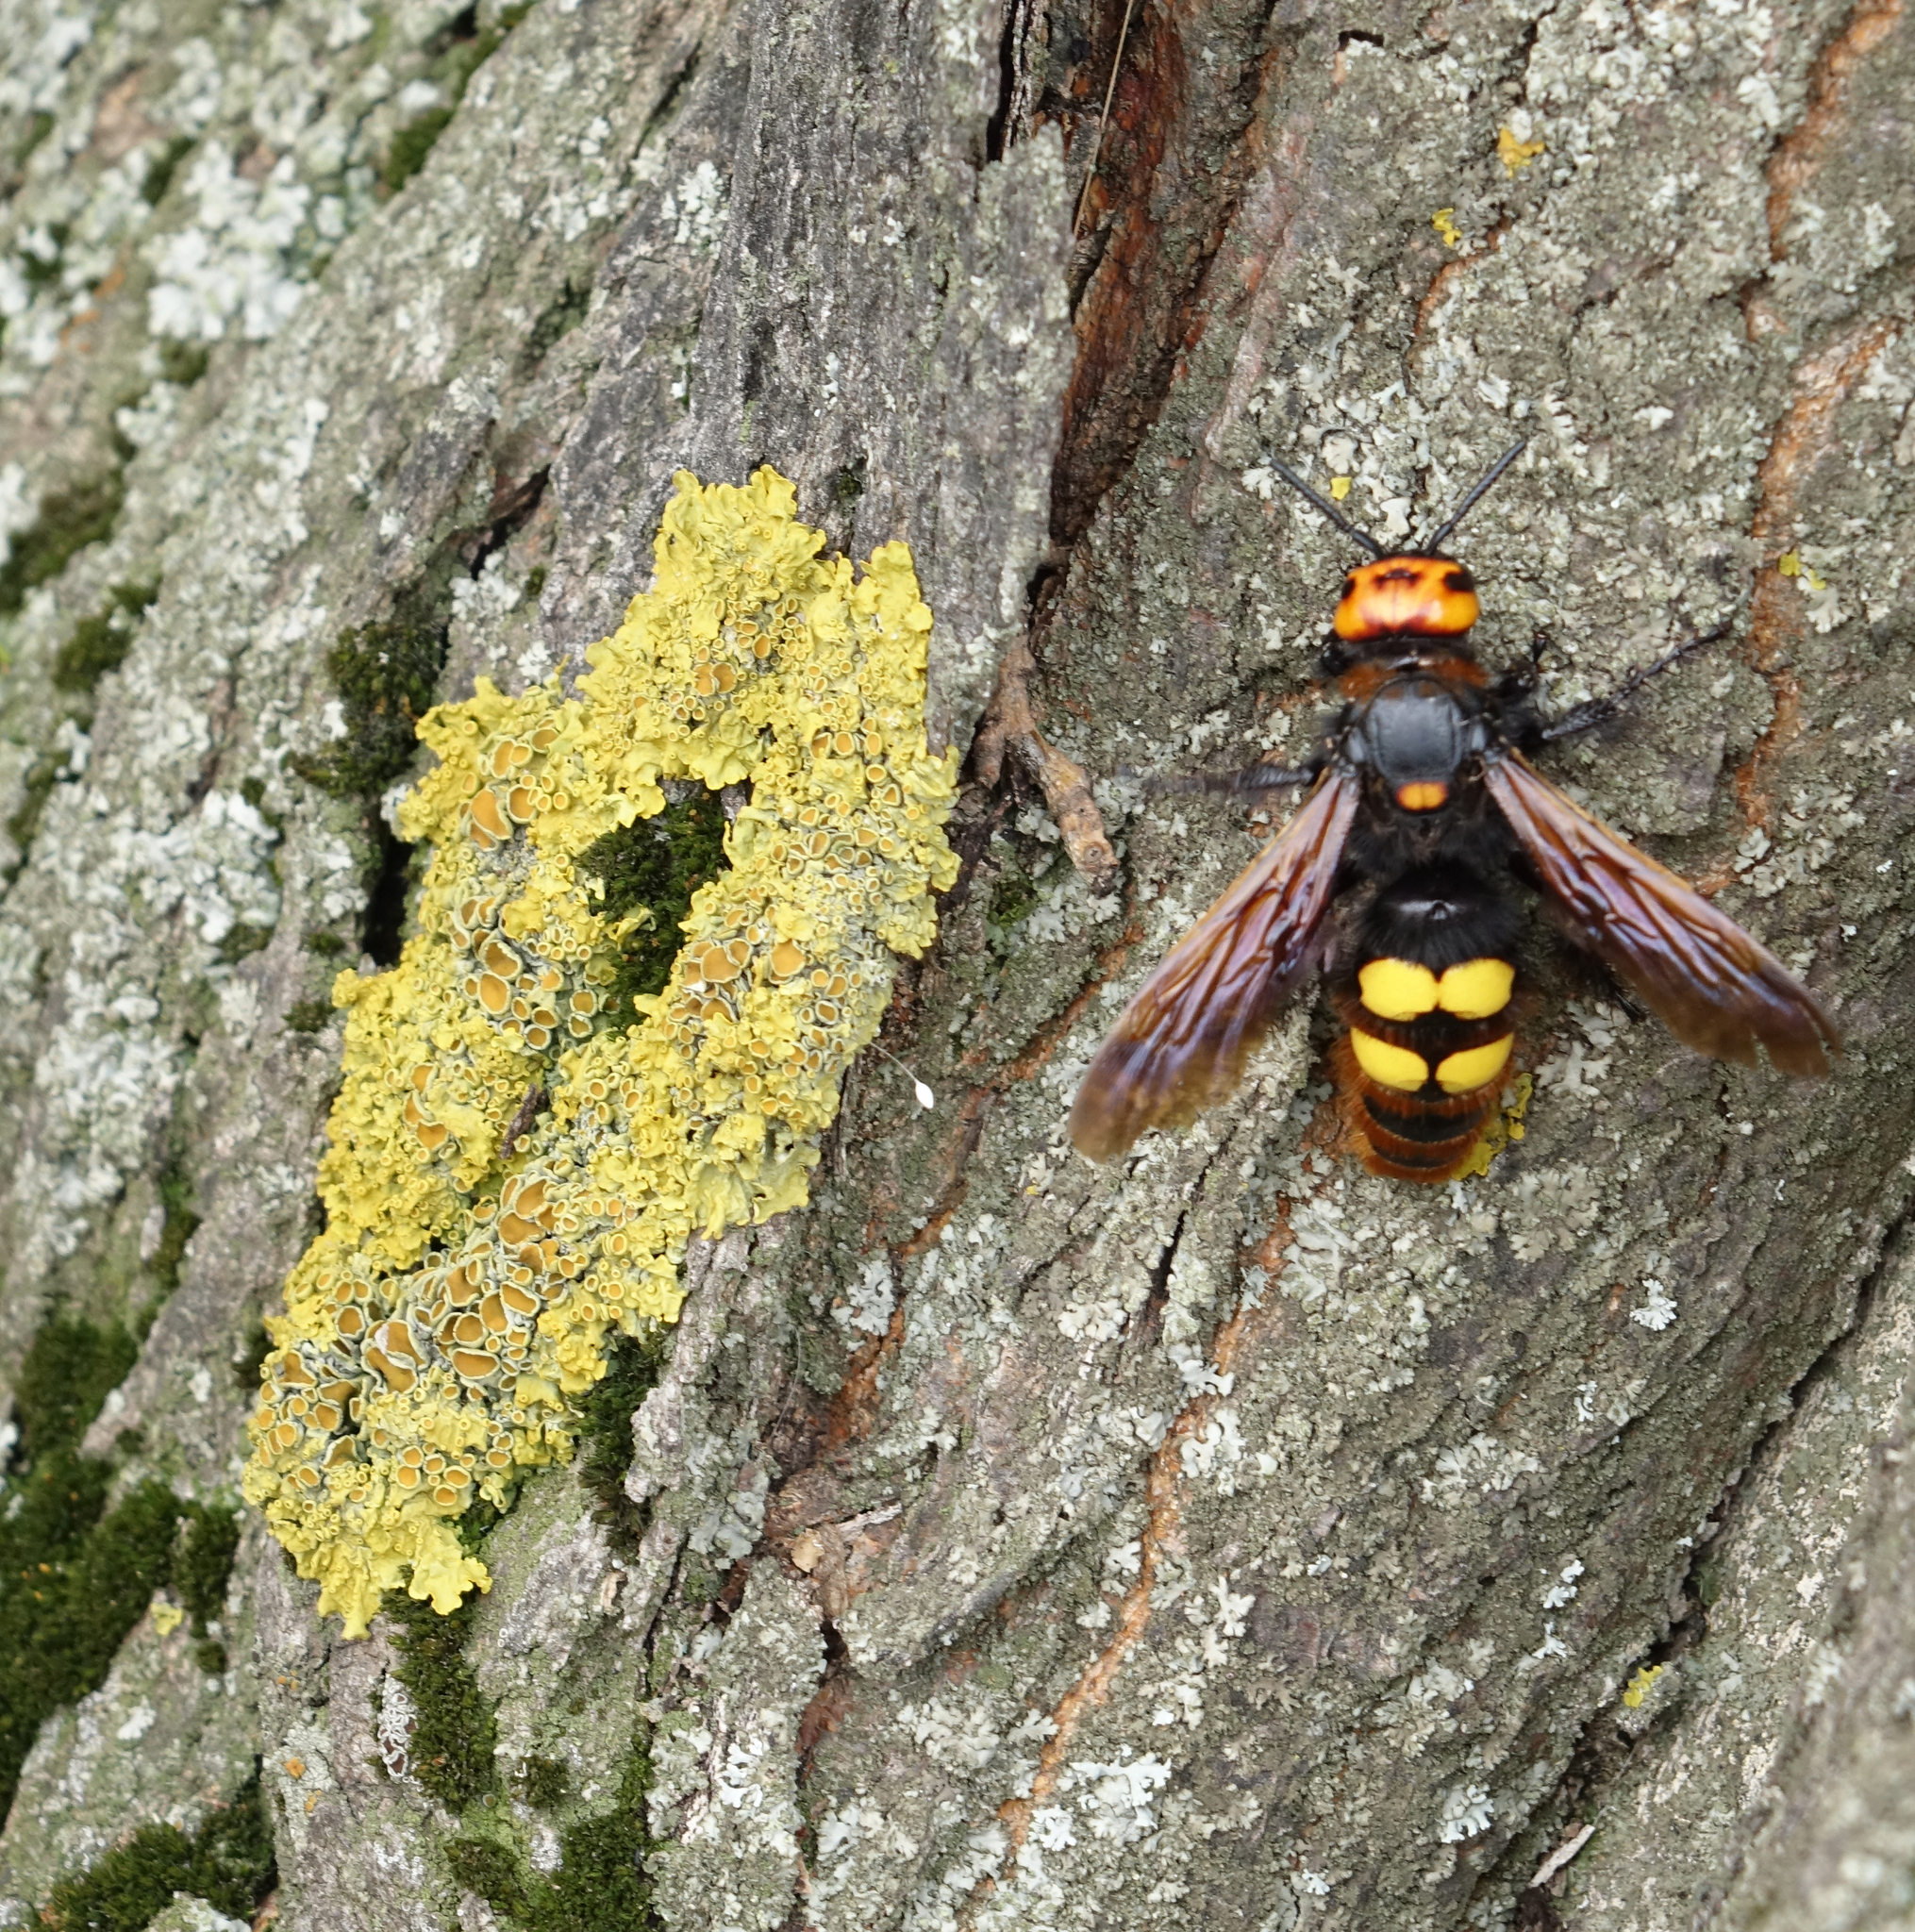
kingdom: Fungi
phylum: Ascomycota
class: Lecanoromycetes
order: Teloschistales
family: Teloschistaceae
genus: Xanthoria
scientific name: Xanthoria parietina
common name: Common orange lichen
